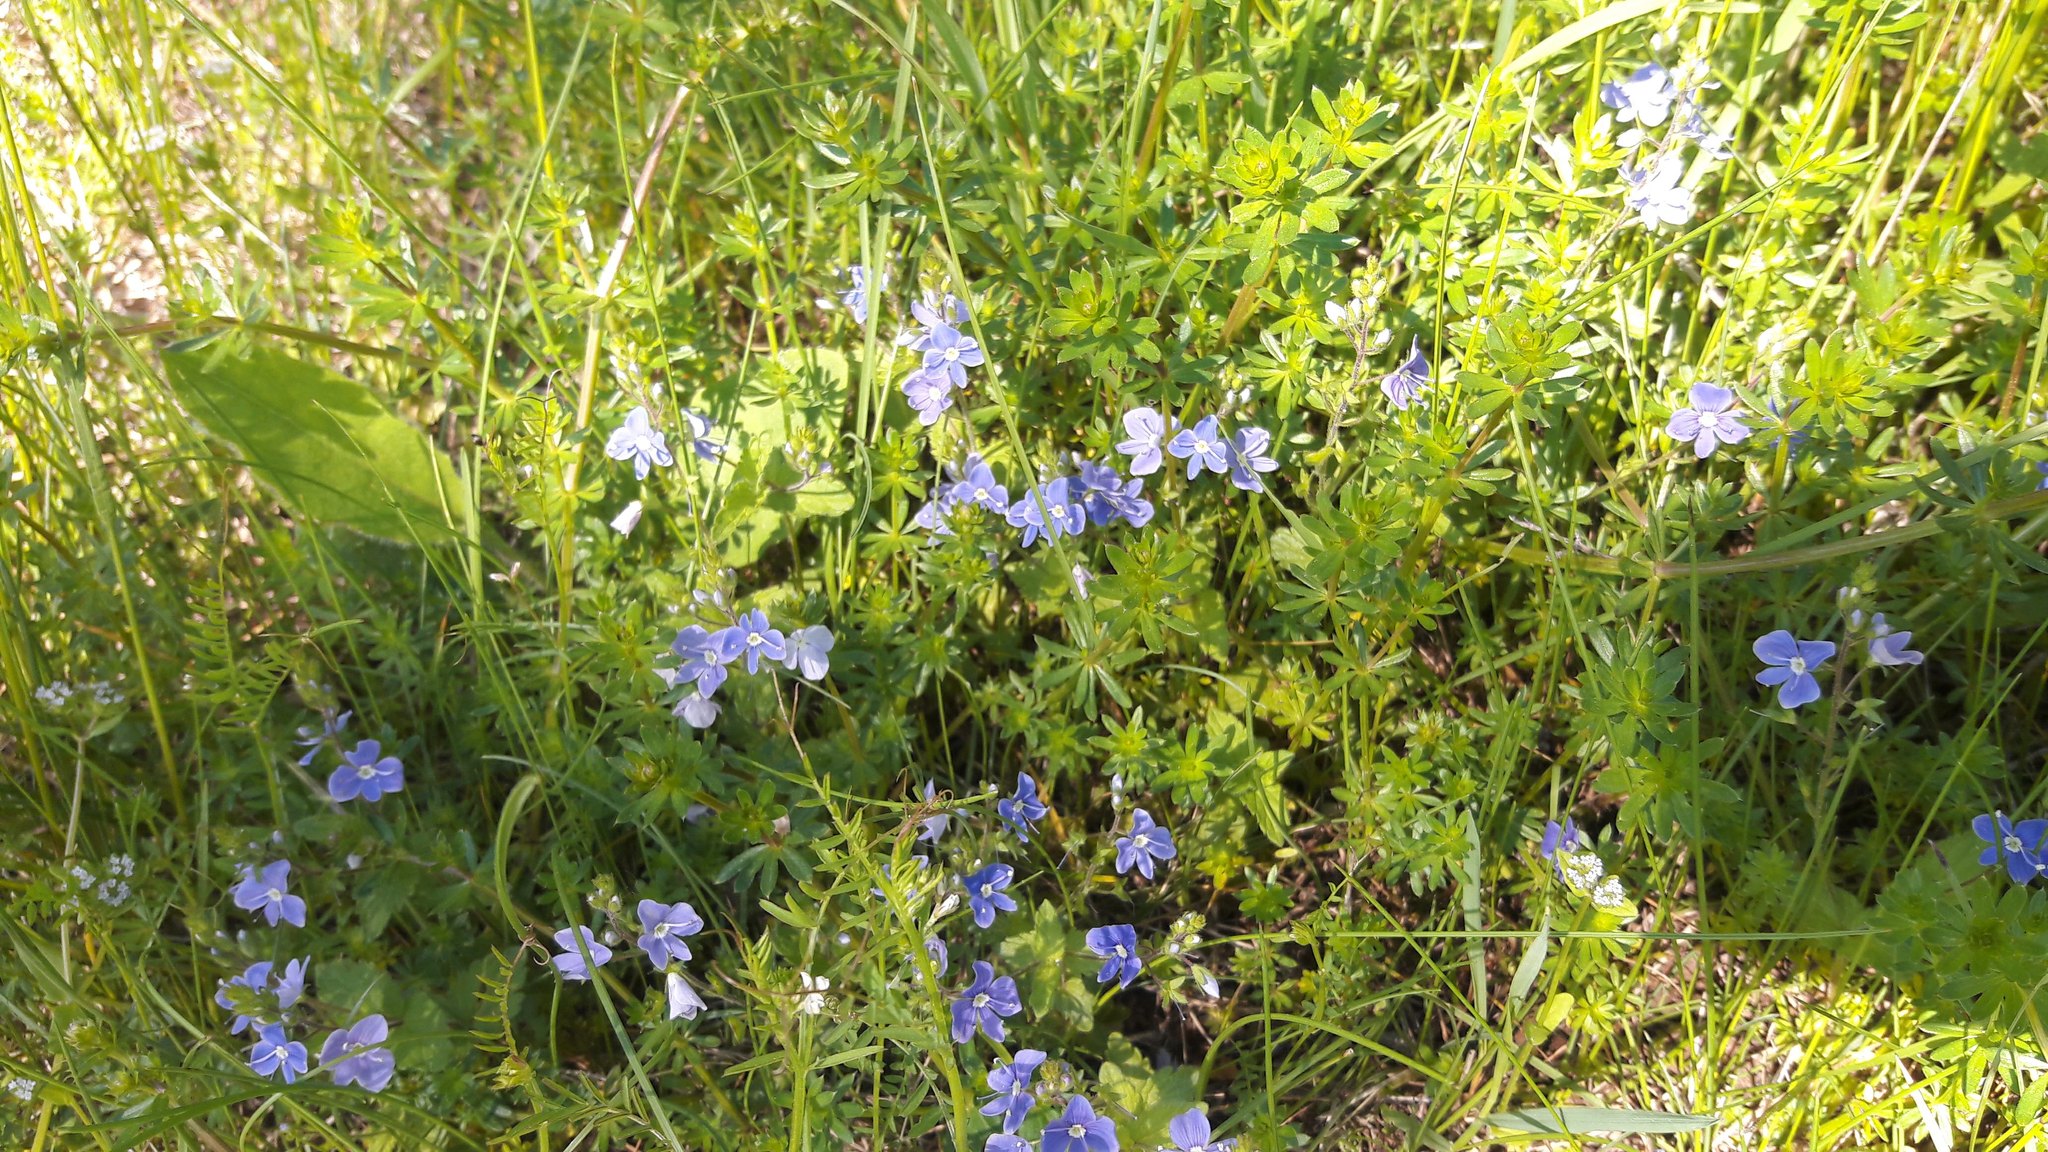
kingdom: Plantae
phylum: Tracheophyta
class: Magnoliopsida
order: Lamiales
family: Plantaginaceae
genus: Veronica
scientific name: Veronica chamaedrys
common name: Germander speedwell
